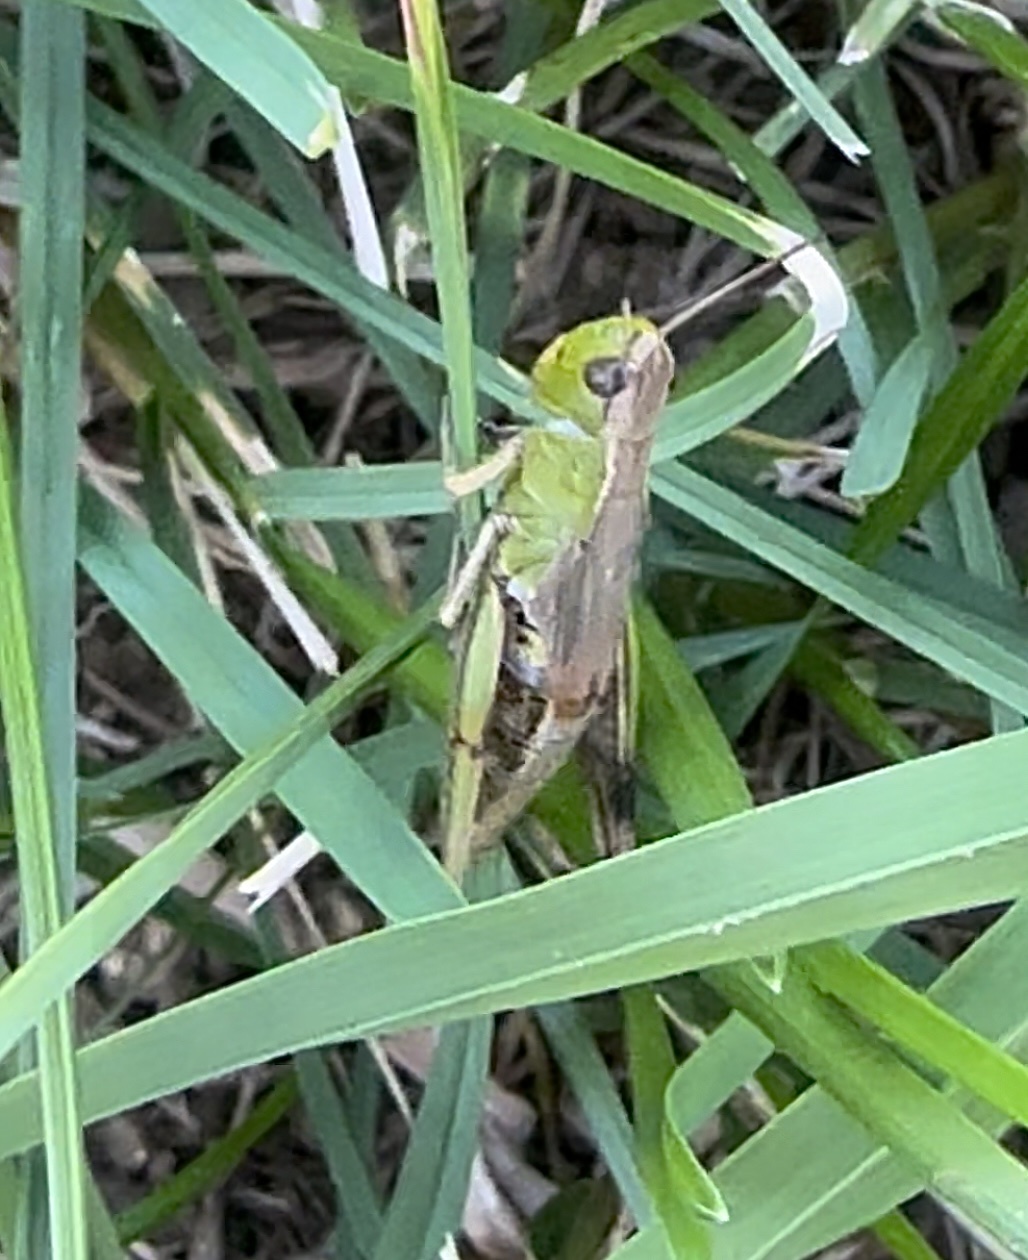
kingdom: Animalia
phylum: Arthropoda
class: Insecta
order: Orthoptera
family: Acrididae
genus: Pseudochorthippus
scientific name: Pseudochorthippus parallelus
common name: Meadow grasshopper
